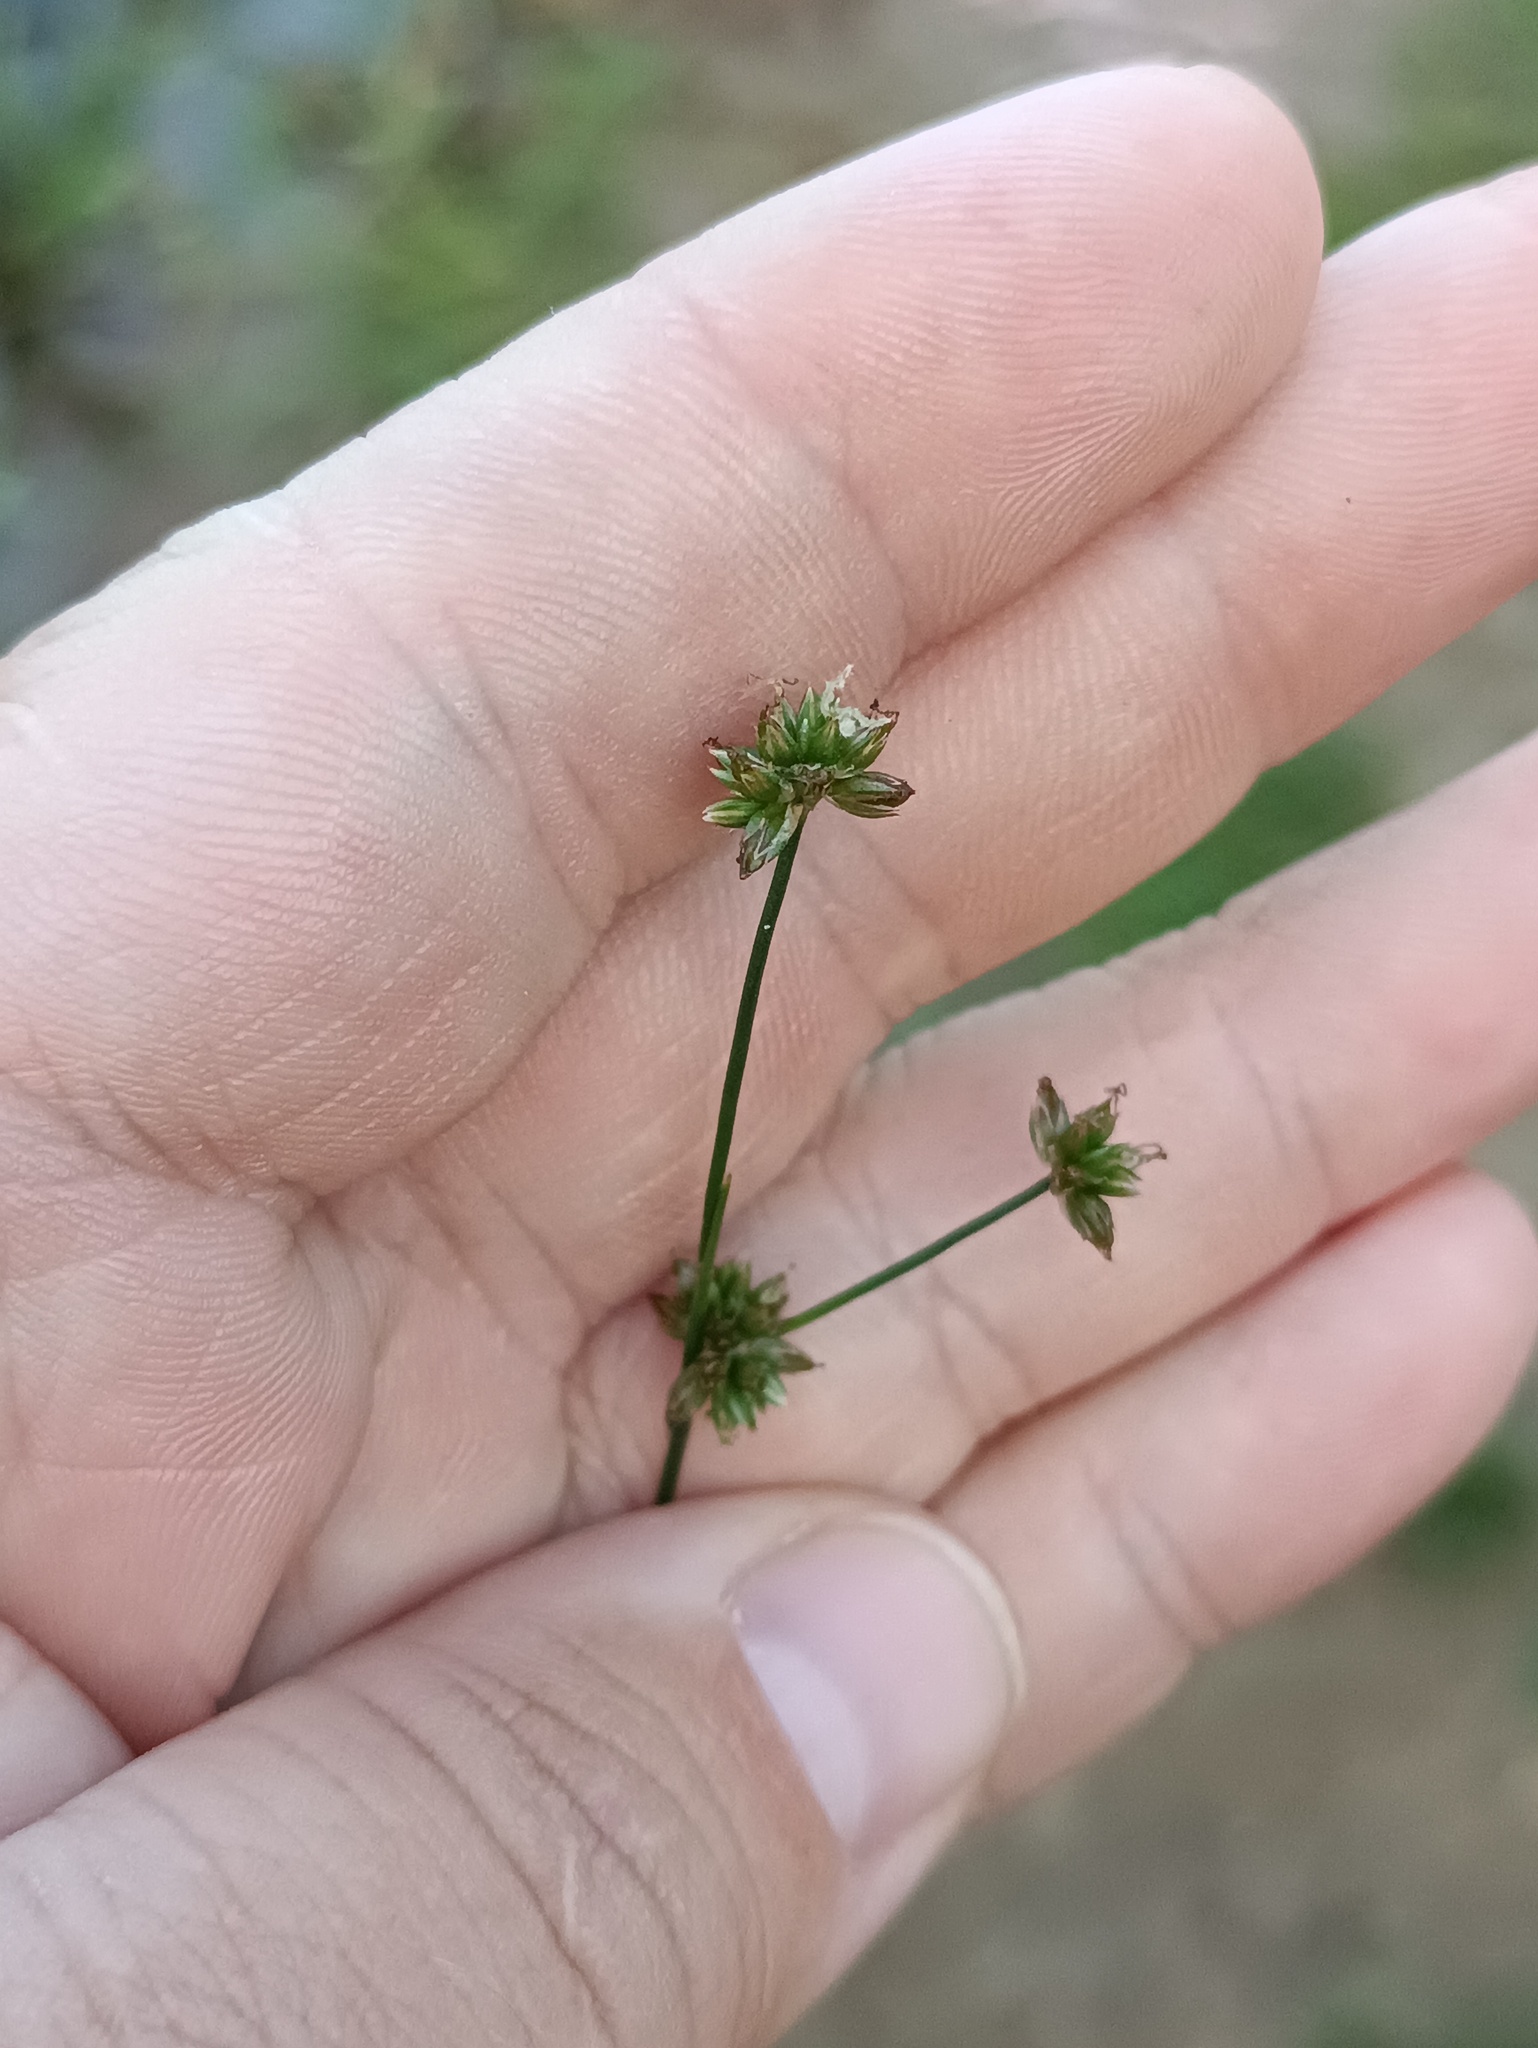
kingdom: Plantae
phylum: Tracheophyta
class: Liliopsida
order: Poales
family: Juncaceae
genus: Juncus
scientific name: Juncus articulatus
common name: Jointed rush
